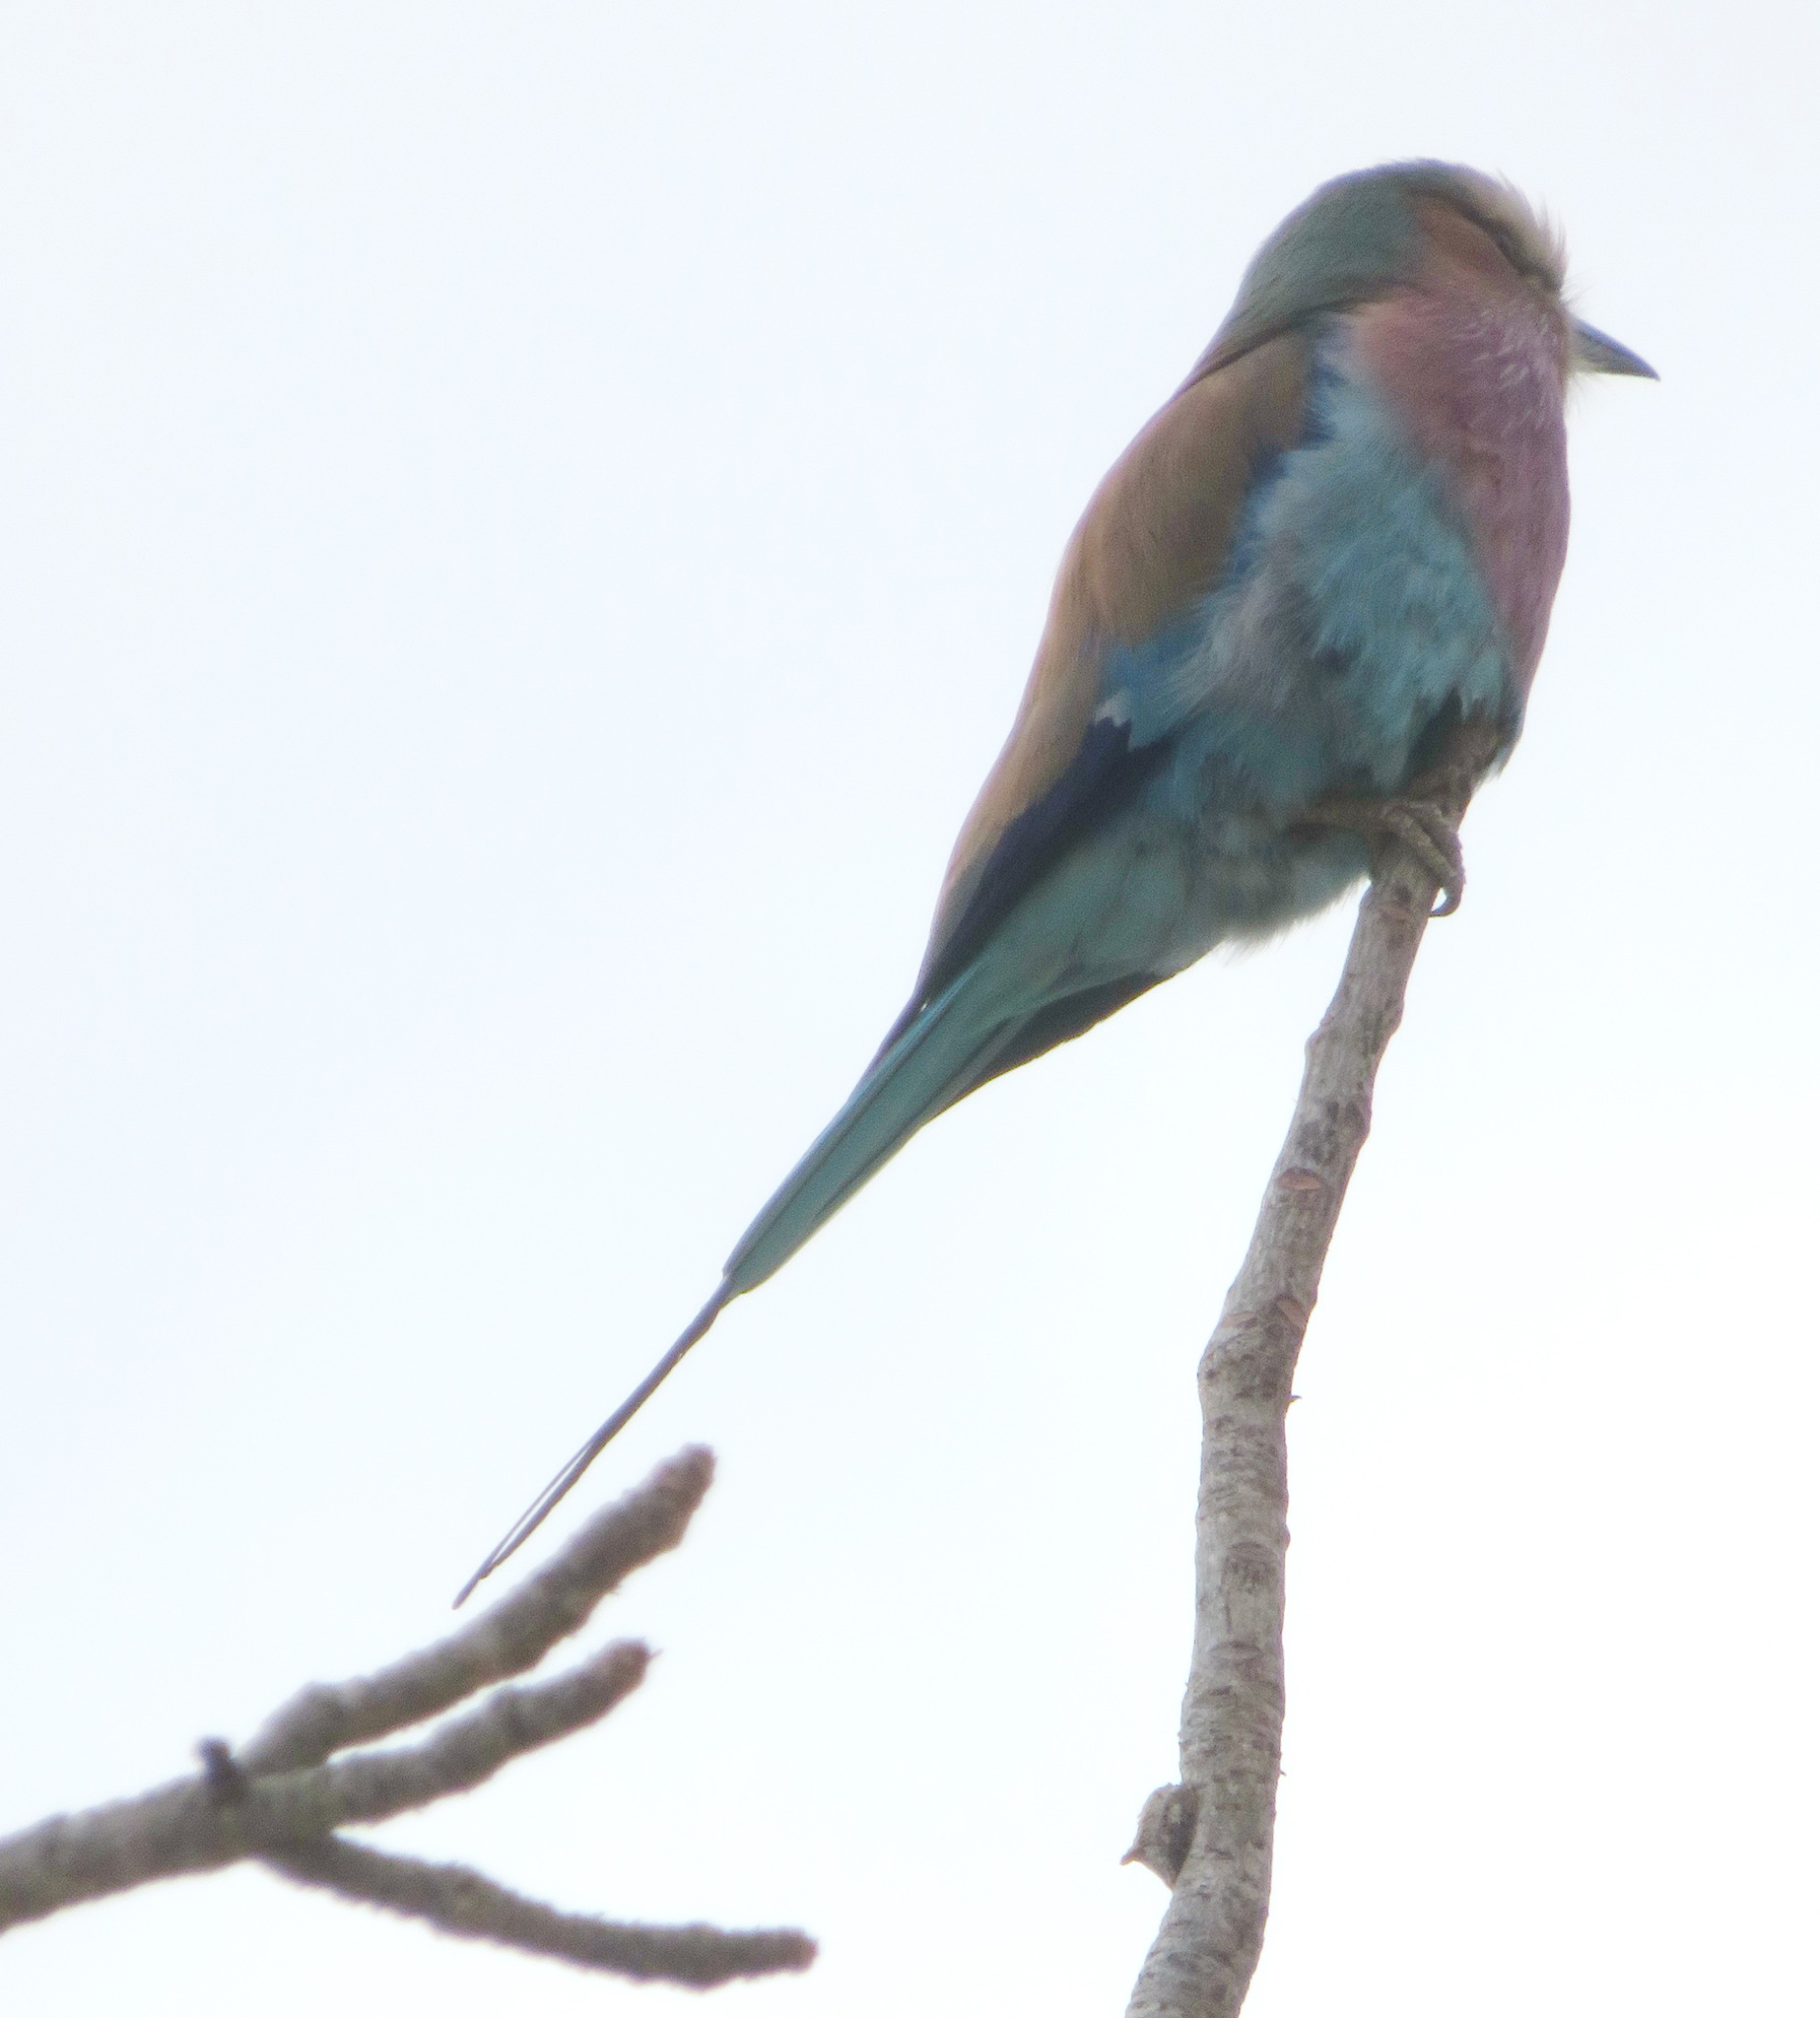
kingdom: Animalia
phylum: Chordata
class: Aves
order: Coraciiformes
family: Coraciidae
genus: Coracias
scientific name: Coracias caudatus
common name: Lilac-breasted roller
